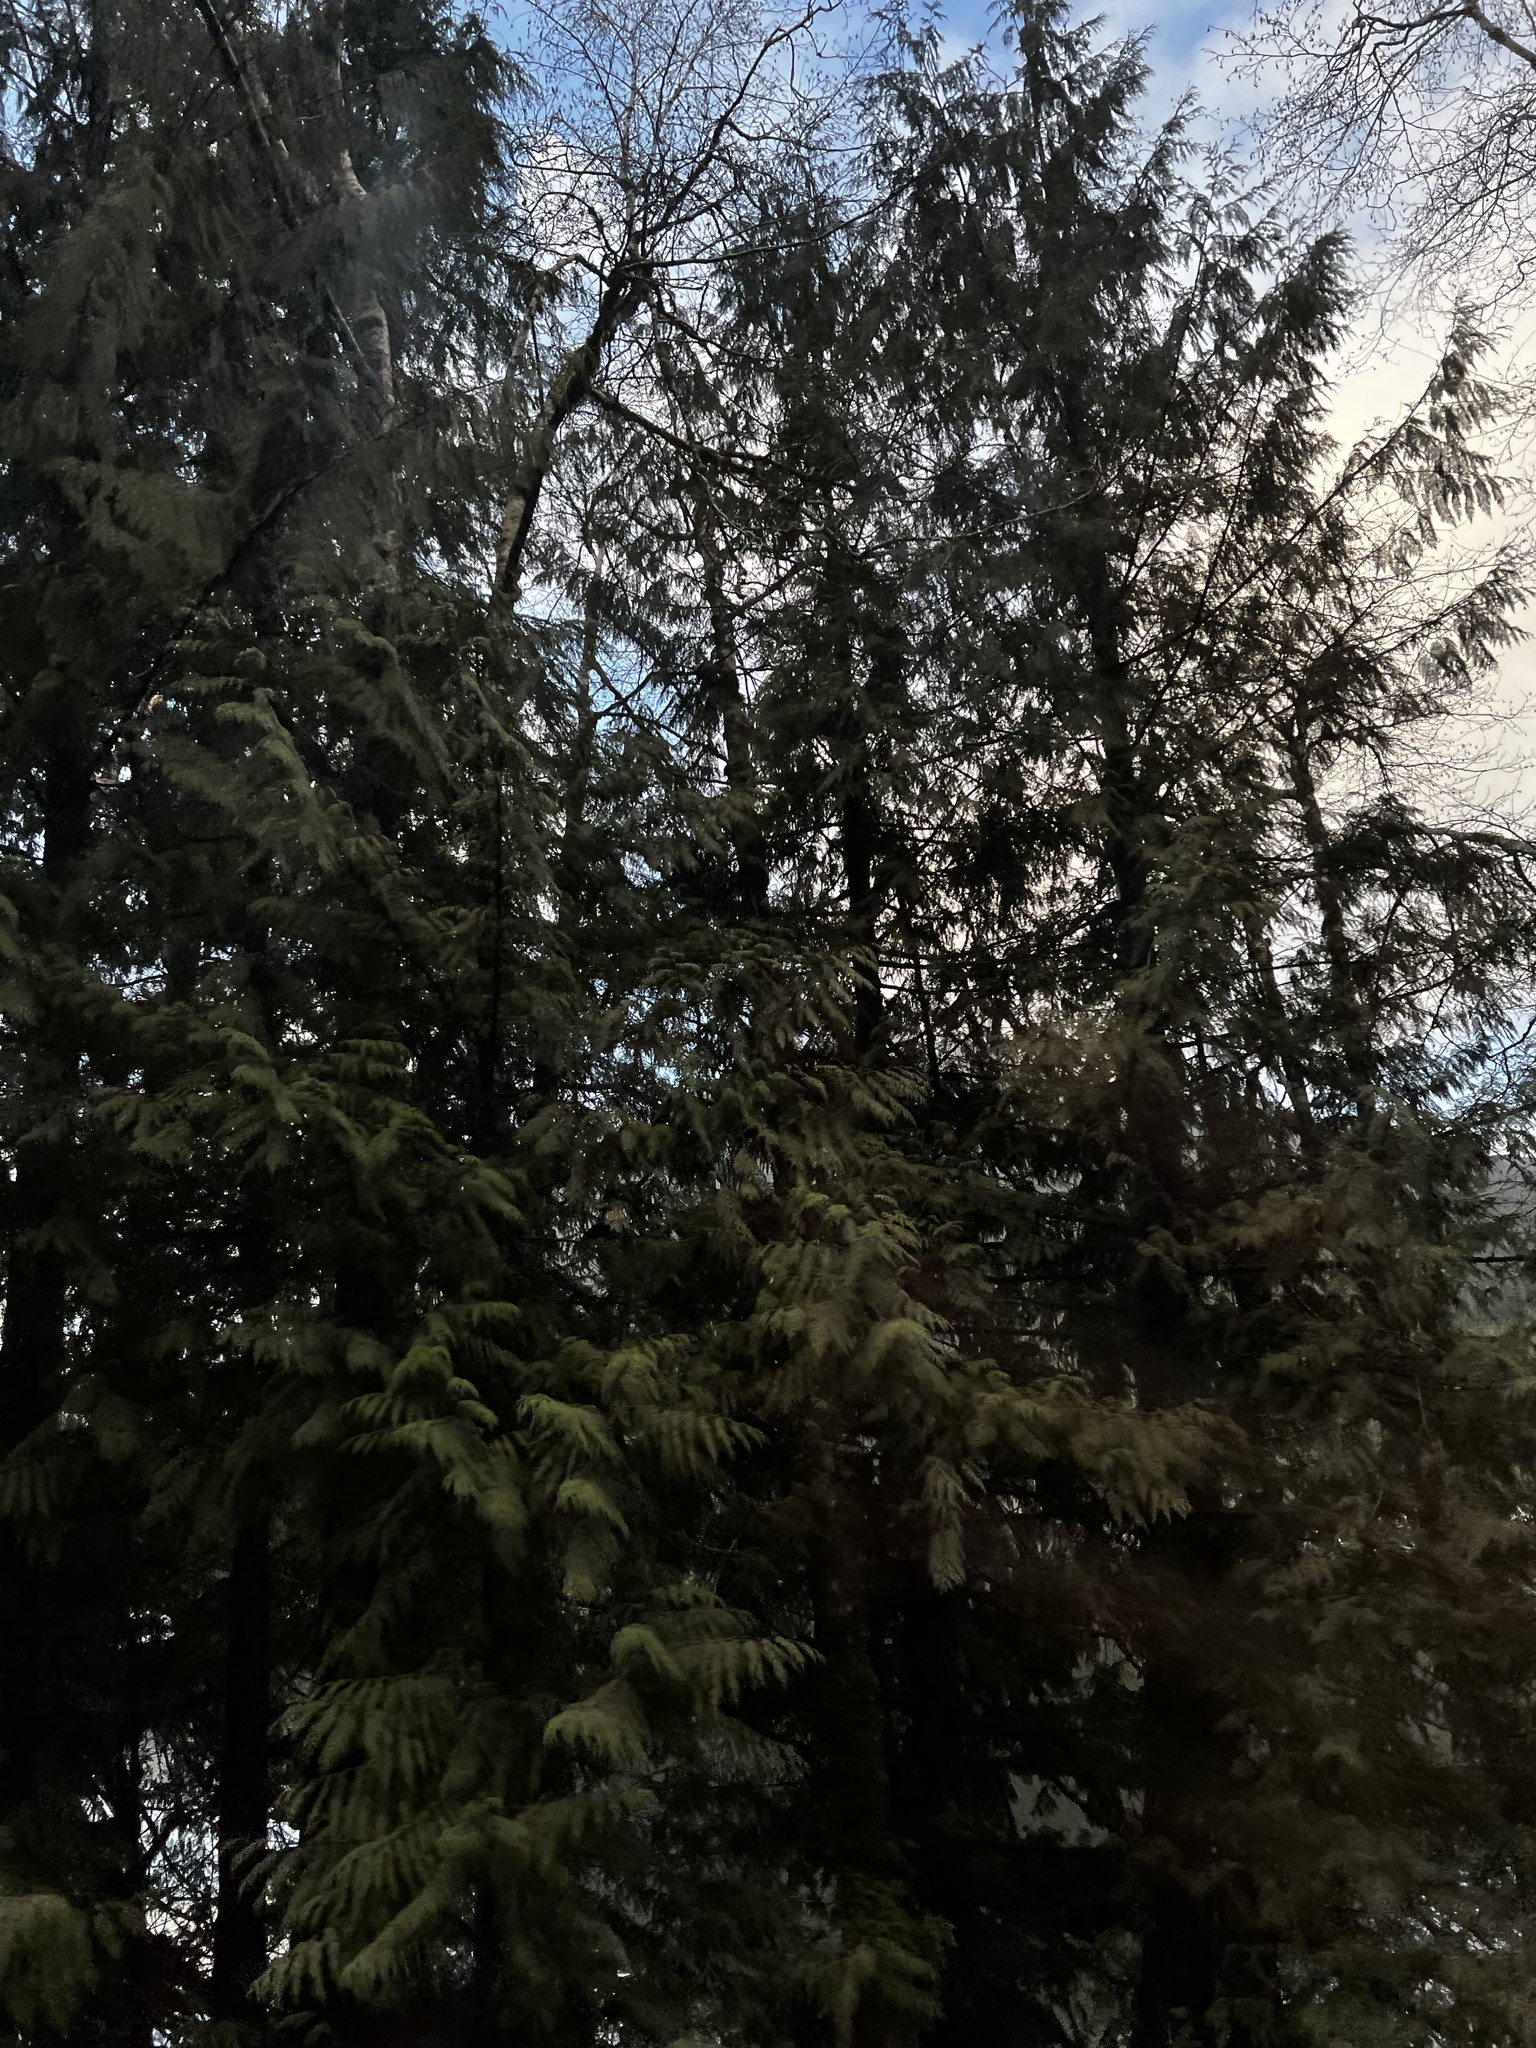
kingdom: Plantae
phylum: Tracheophyta
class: Pinopsida
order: Pinales
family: Cupressaceae
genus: Thuja
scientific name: Thuja plicata
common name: Western red-cedar
